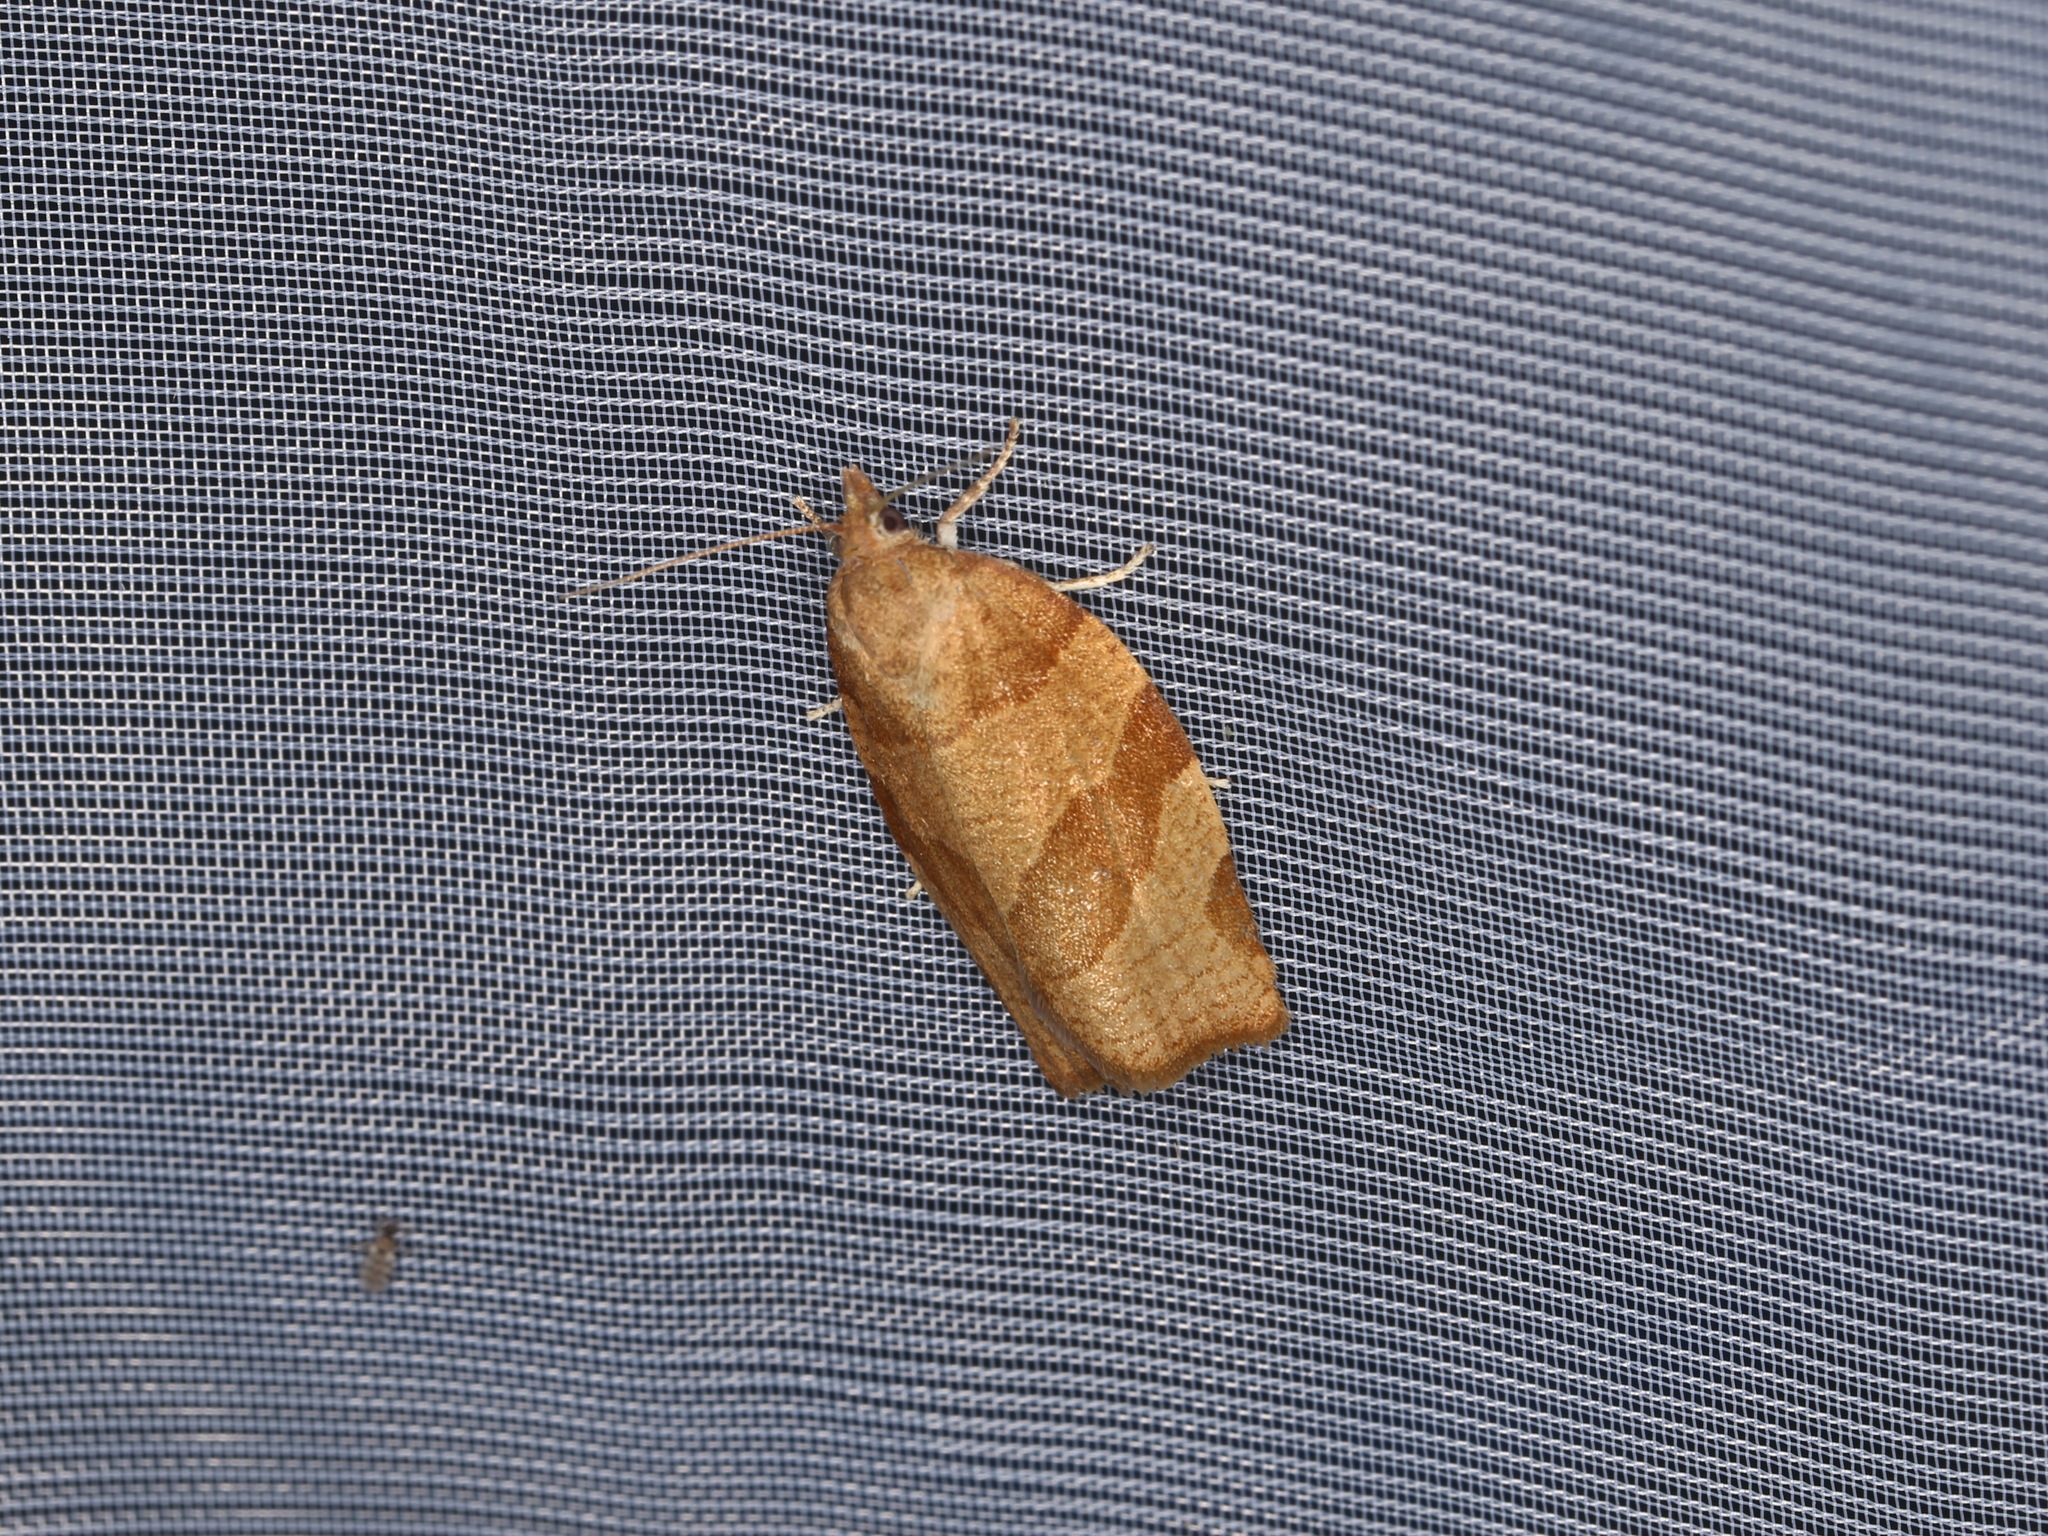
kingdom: Animalia
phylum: Arthropoda
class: Insecta
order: Lepidoptera
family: Tortricidae
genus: Pandemis
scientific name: Pandemis cerasana
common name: Barred fruit-tree tortrix
